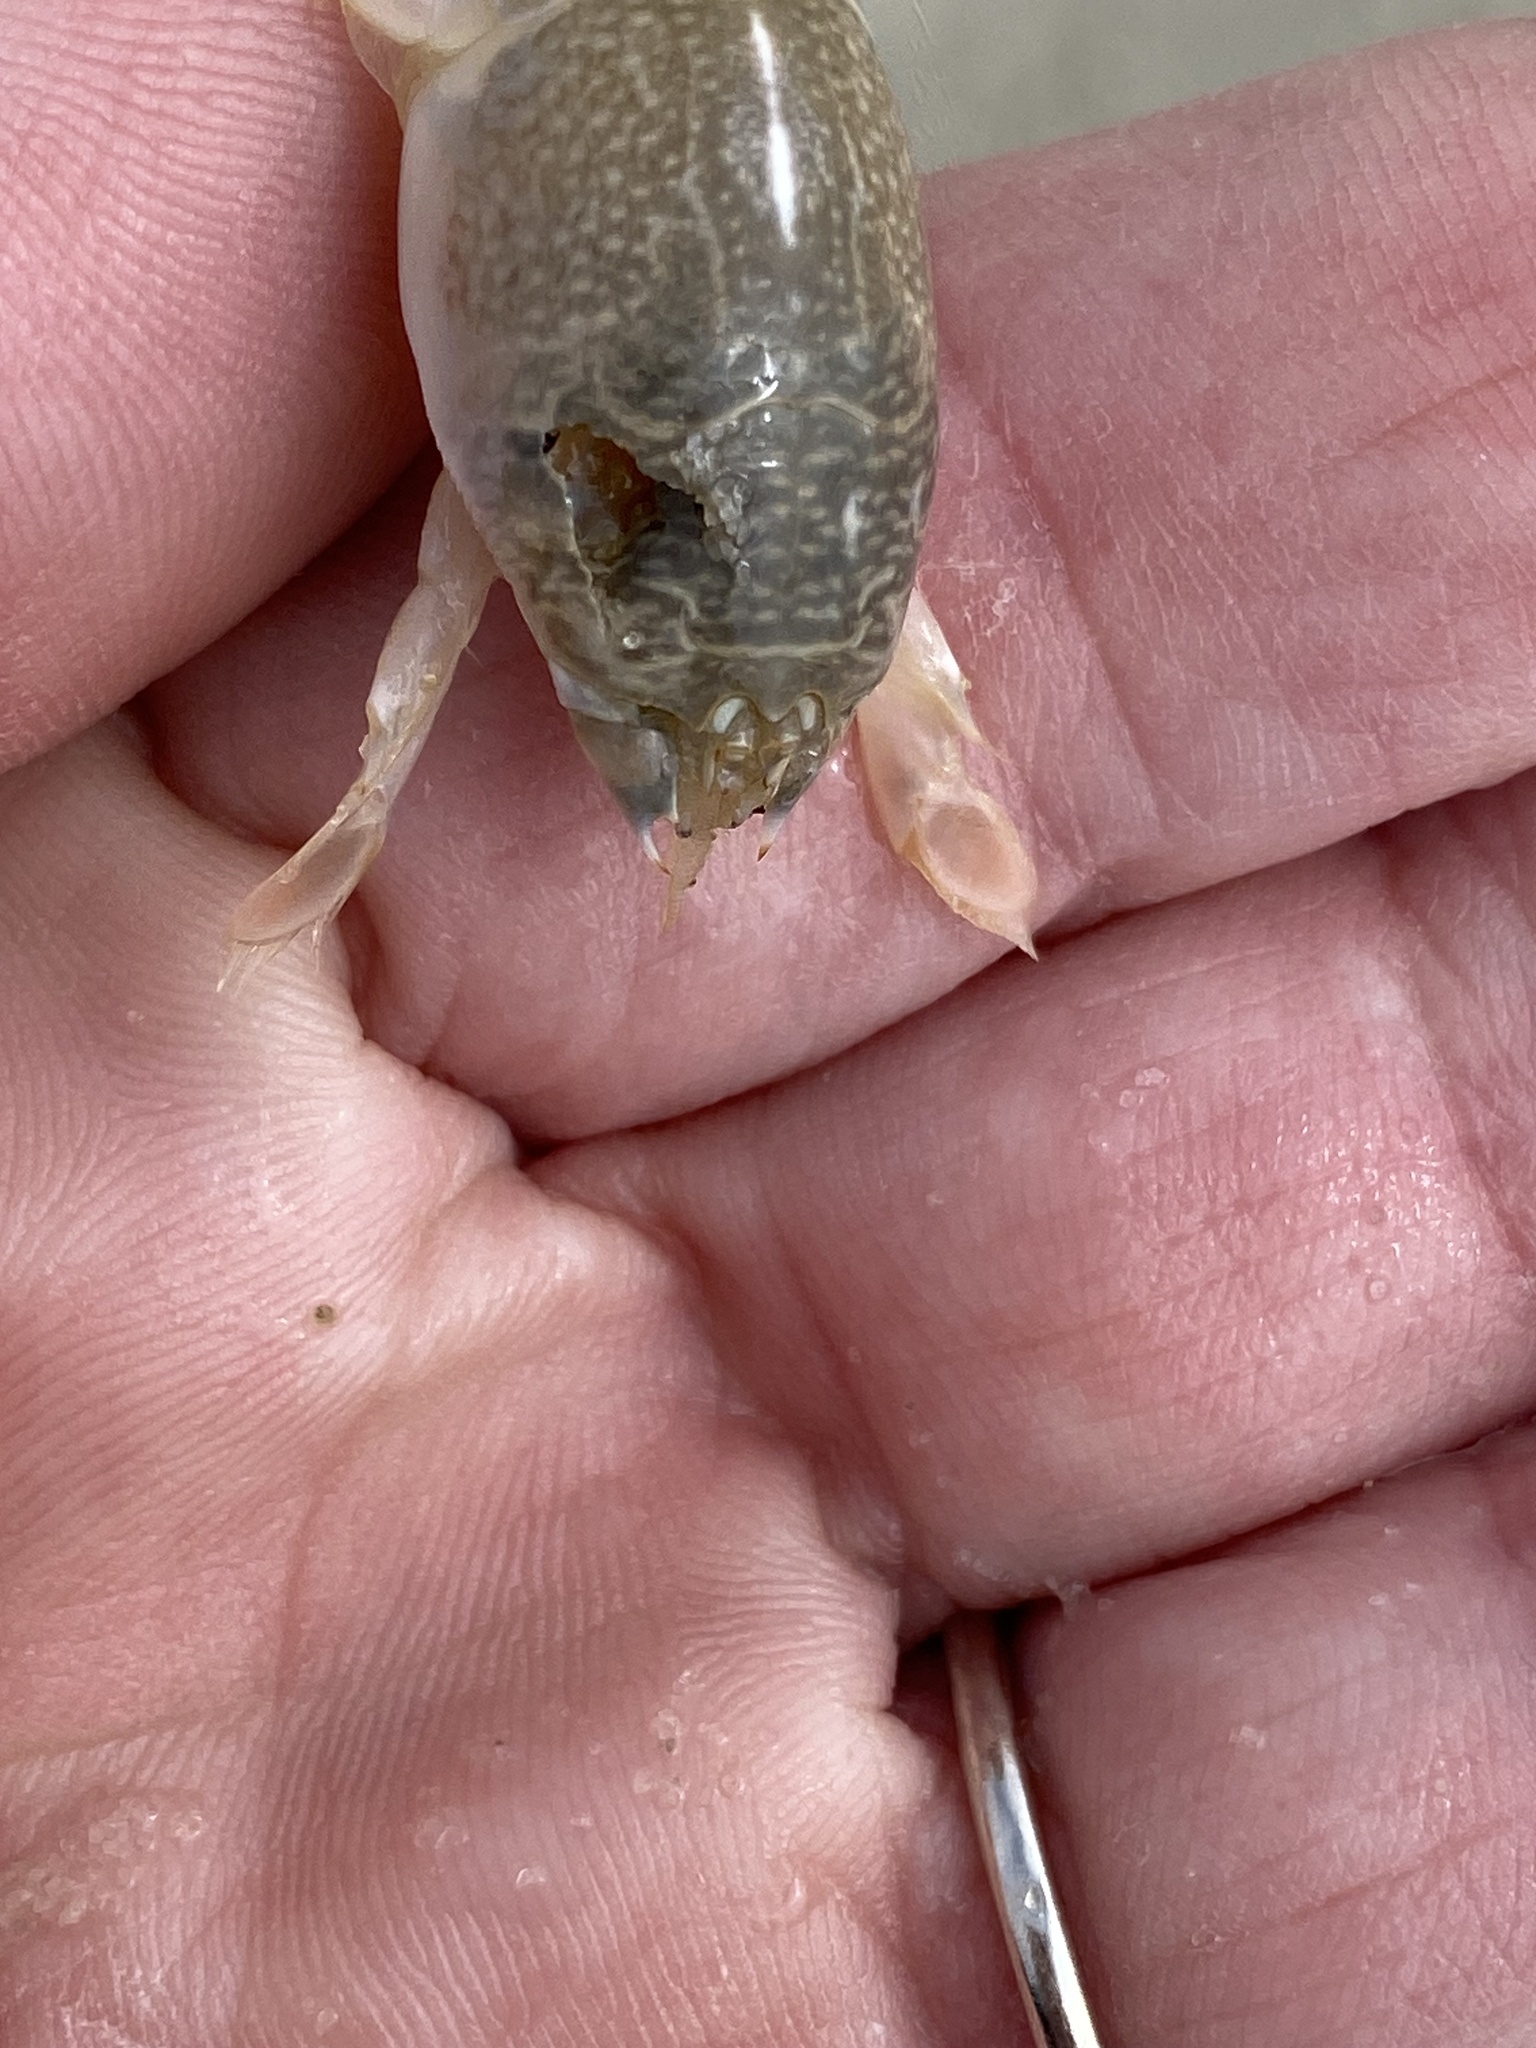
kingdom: Animalia
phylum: Arthropoda
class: Malacostraca
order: Decapoda
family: Hippidae
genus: Emerita
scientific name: Emerita analoga
